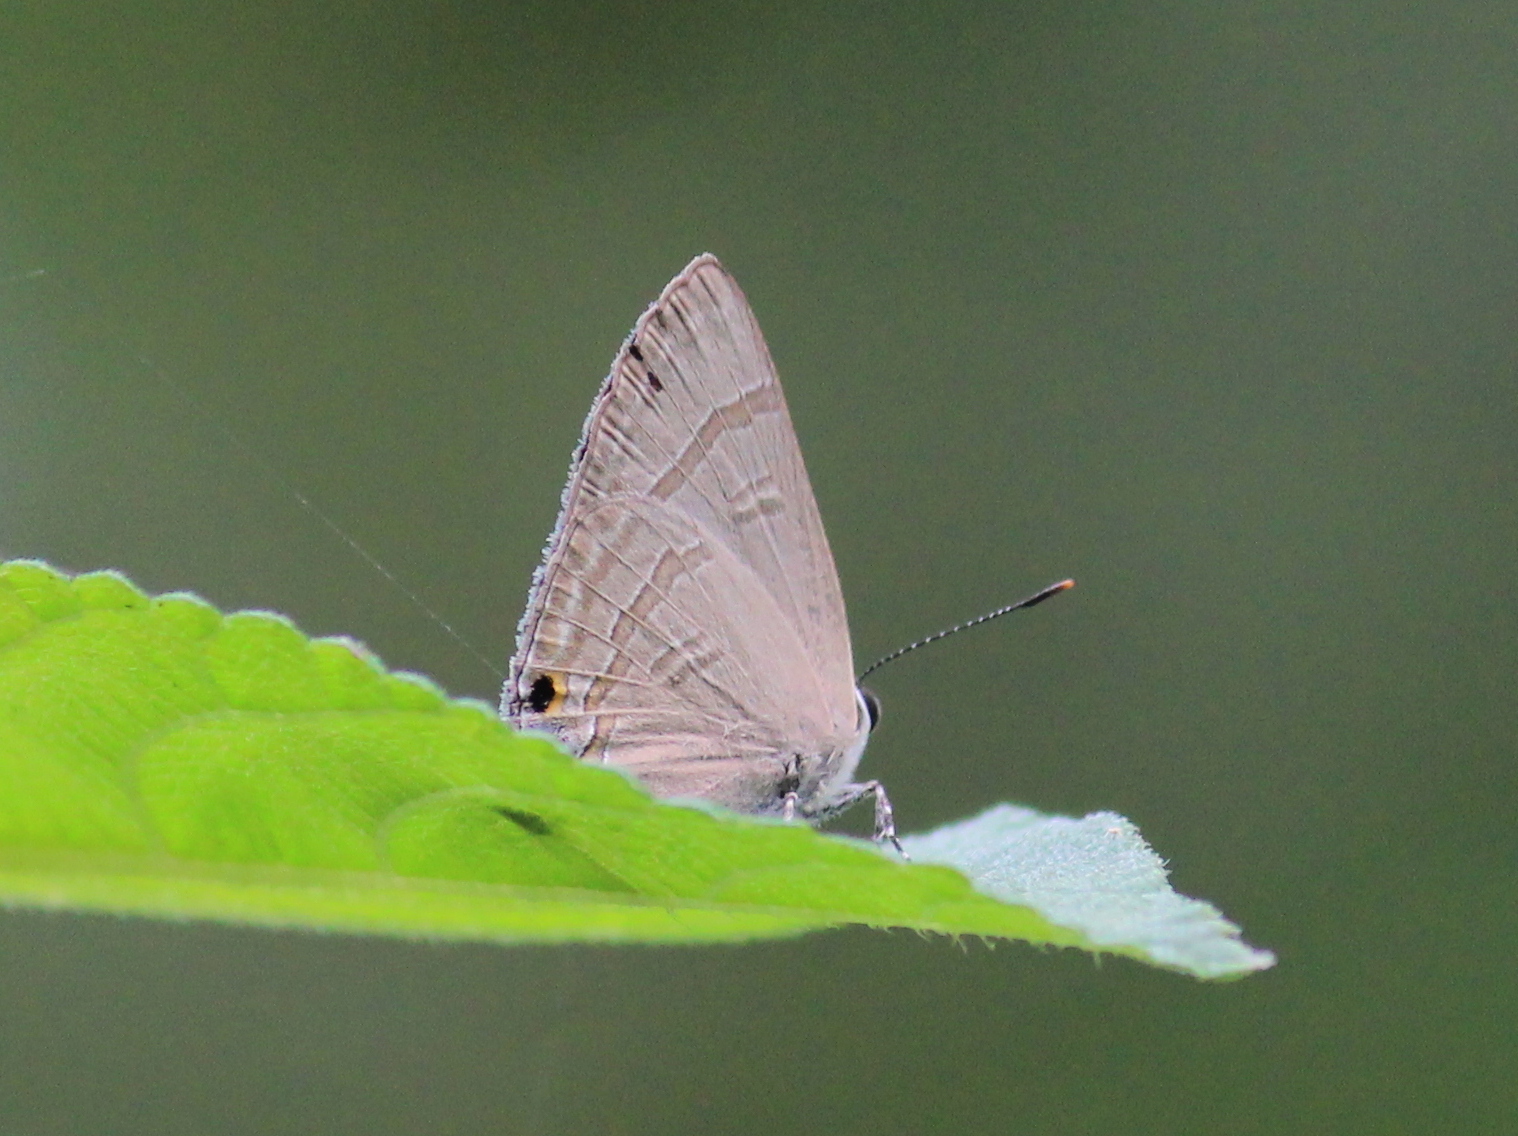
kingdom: Animalia
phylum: Arthropoda
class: Insecta
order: Lepidoptera
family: Lycaenidae
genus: Rapala
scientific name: Rapala manea
